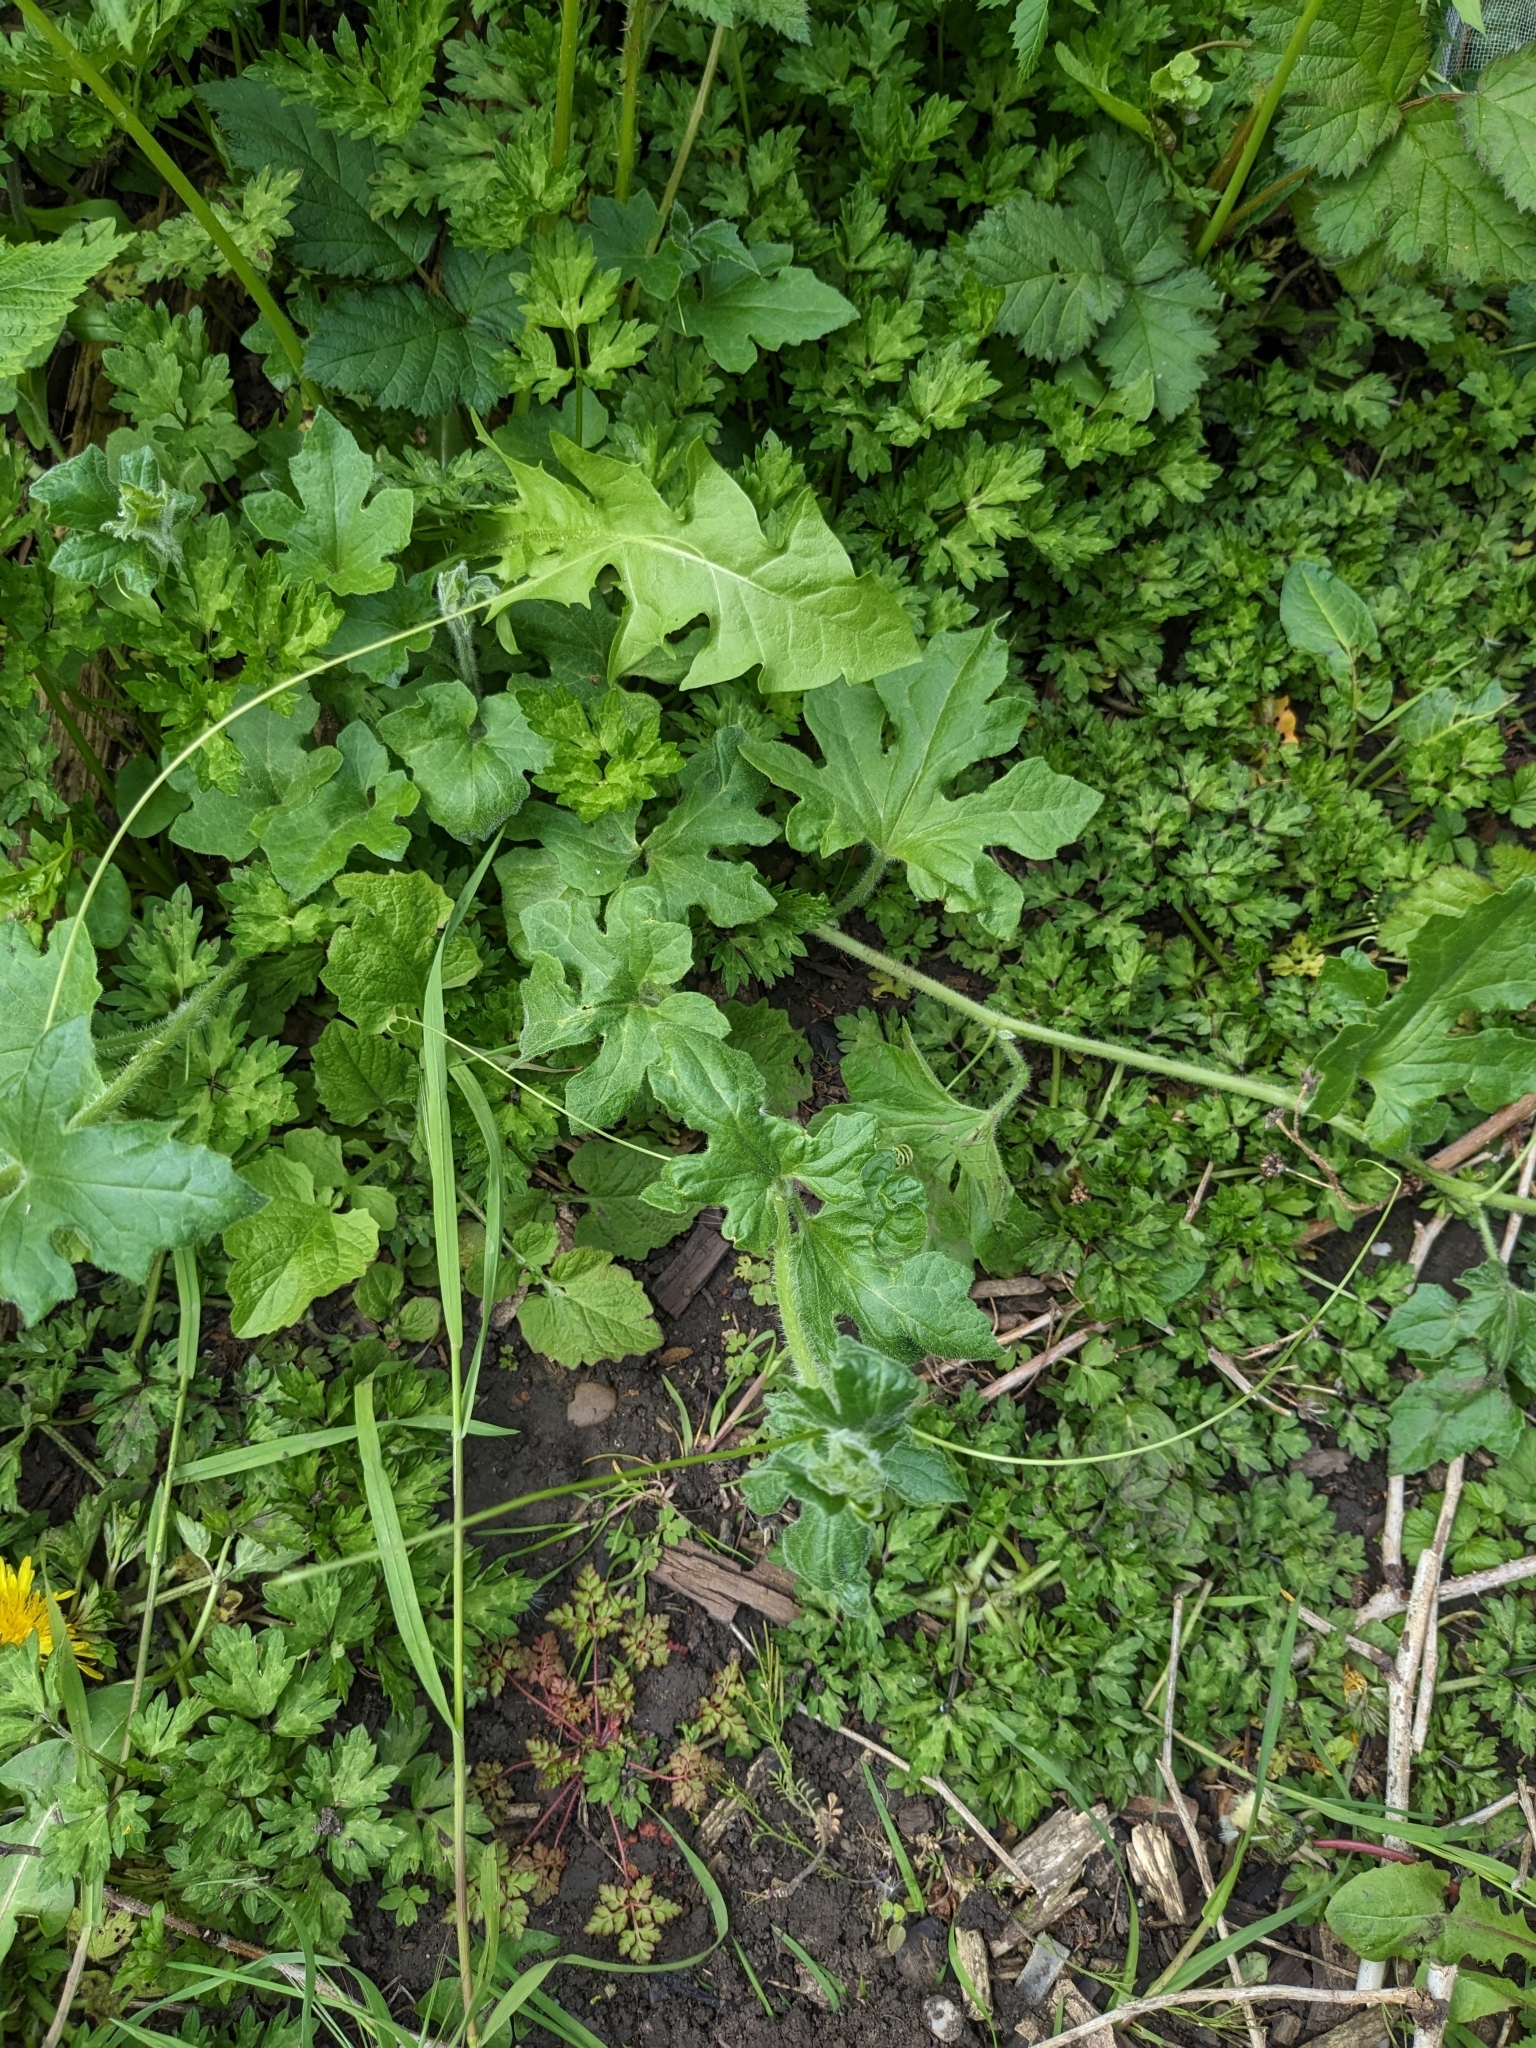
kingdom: Plantae
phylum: Tracheophyta
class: Magnoliopsida
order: Cucurbitales
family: Cucurbitaceae
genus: Bryonia
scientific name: Bryonia dioica
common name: White bryony
